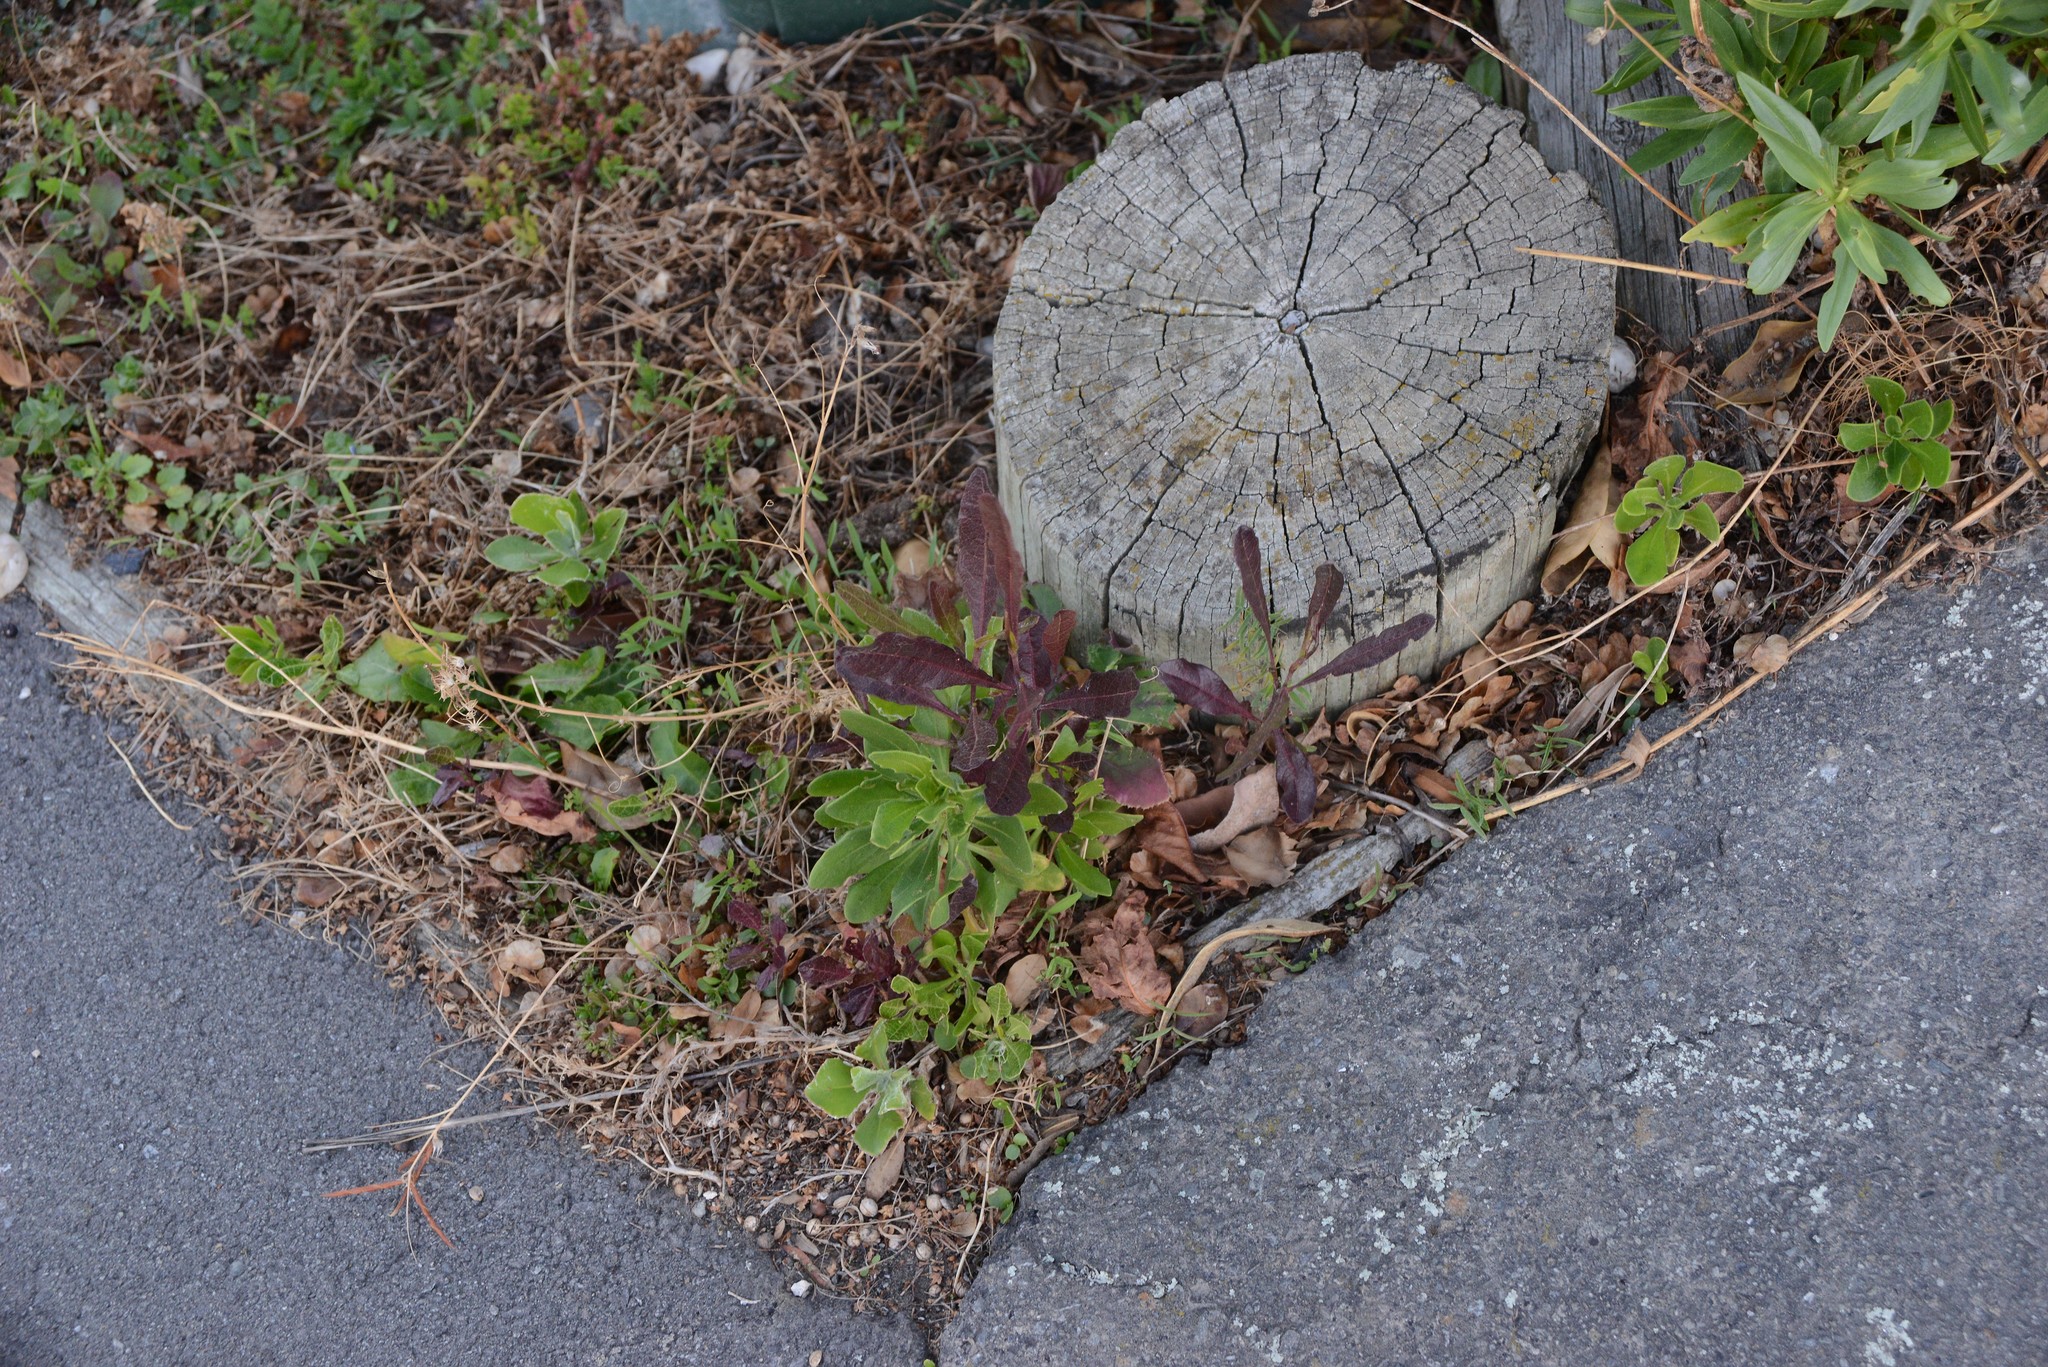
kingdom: Plantae
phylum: Tracheophyta
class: Magnoliopsida
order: Sapindales
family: Sapindaceae
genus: Dodonaea
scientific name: Dodonaea viscosa
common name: Hopbush
